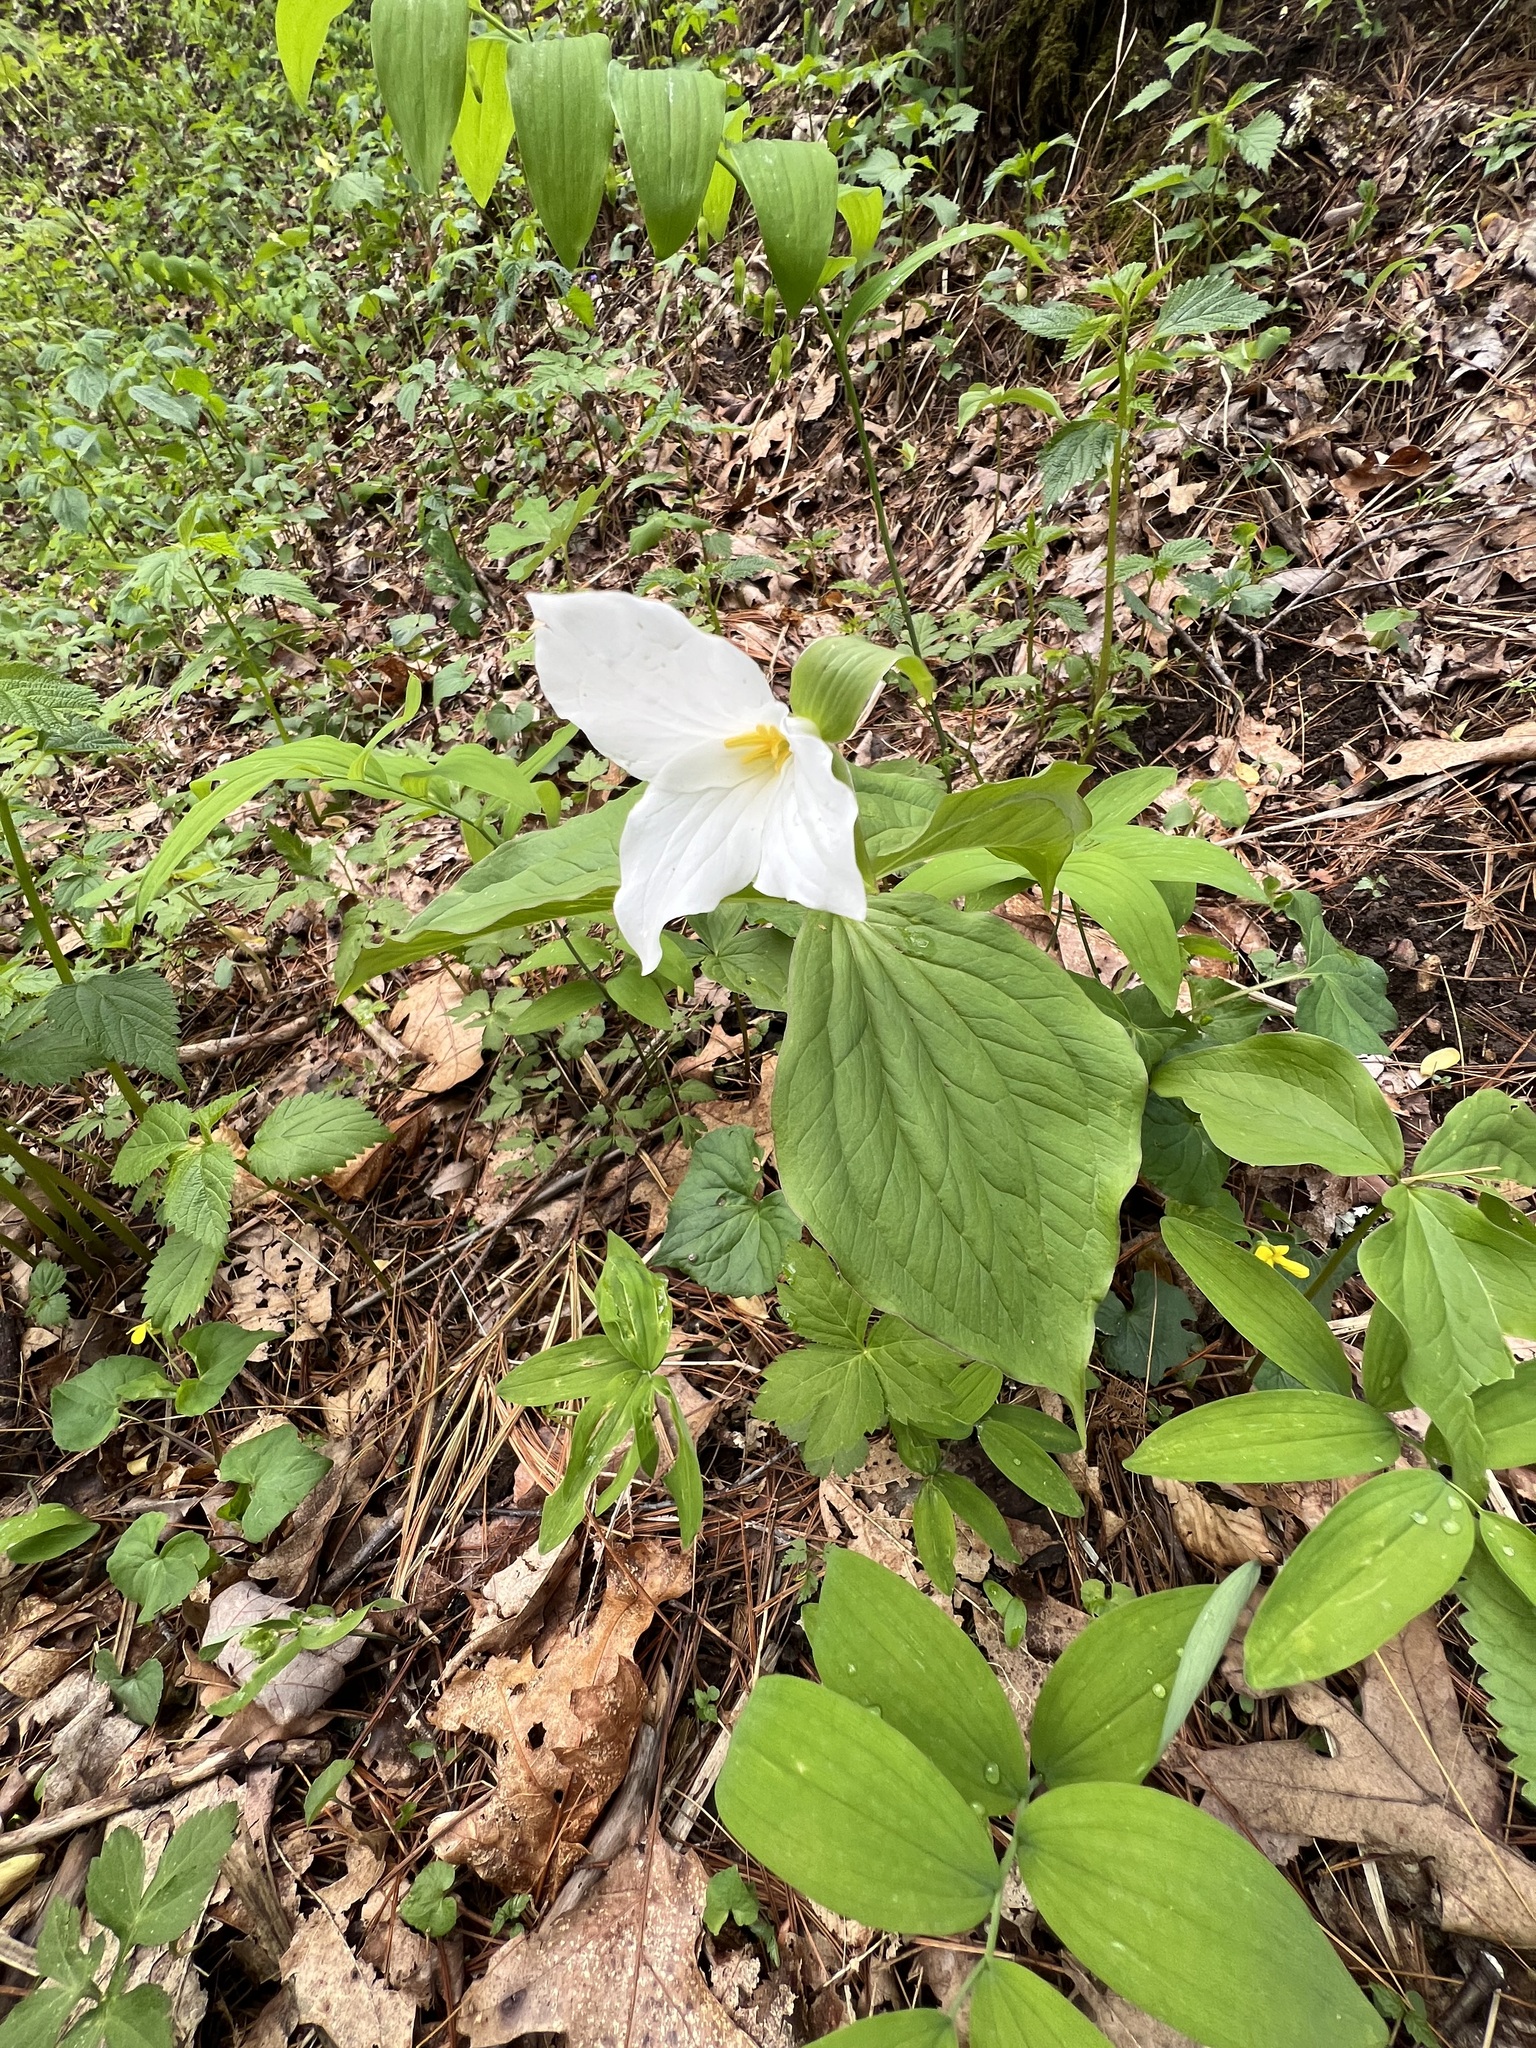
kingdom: Plantae
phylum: Tracheophyta
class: Liliopsida
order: Liliales
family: Melanthiaceae
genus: Trillium
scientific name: Trillium grandiflorum
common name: Great white trillium
